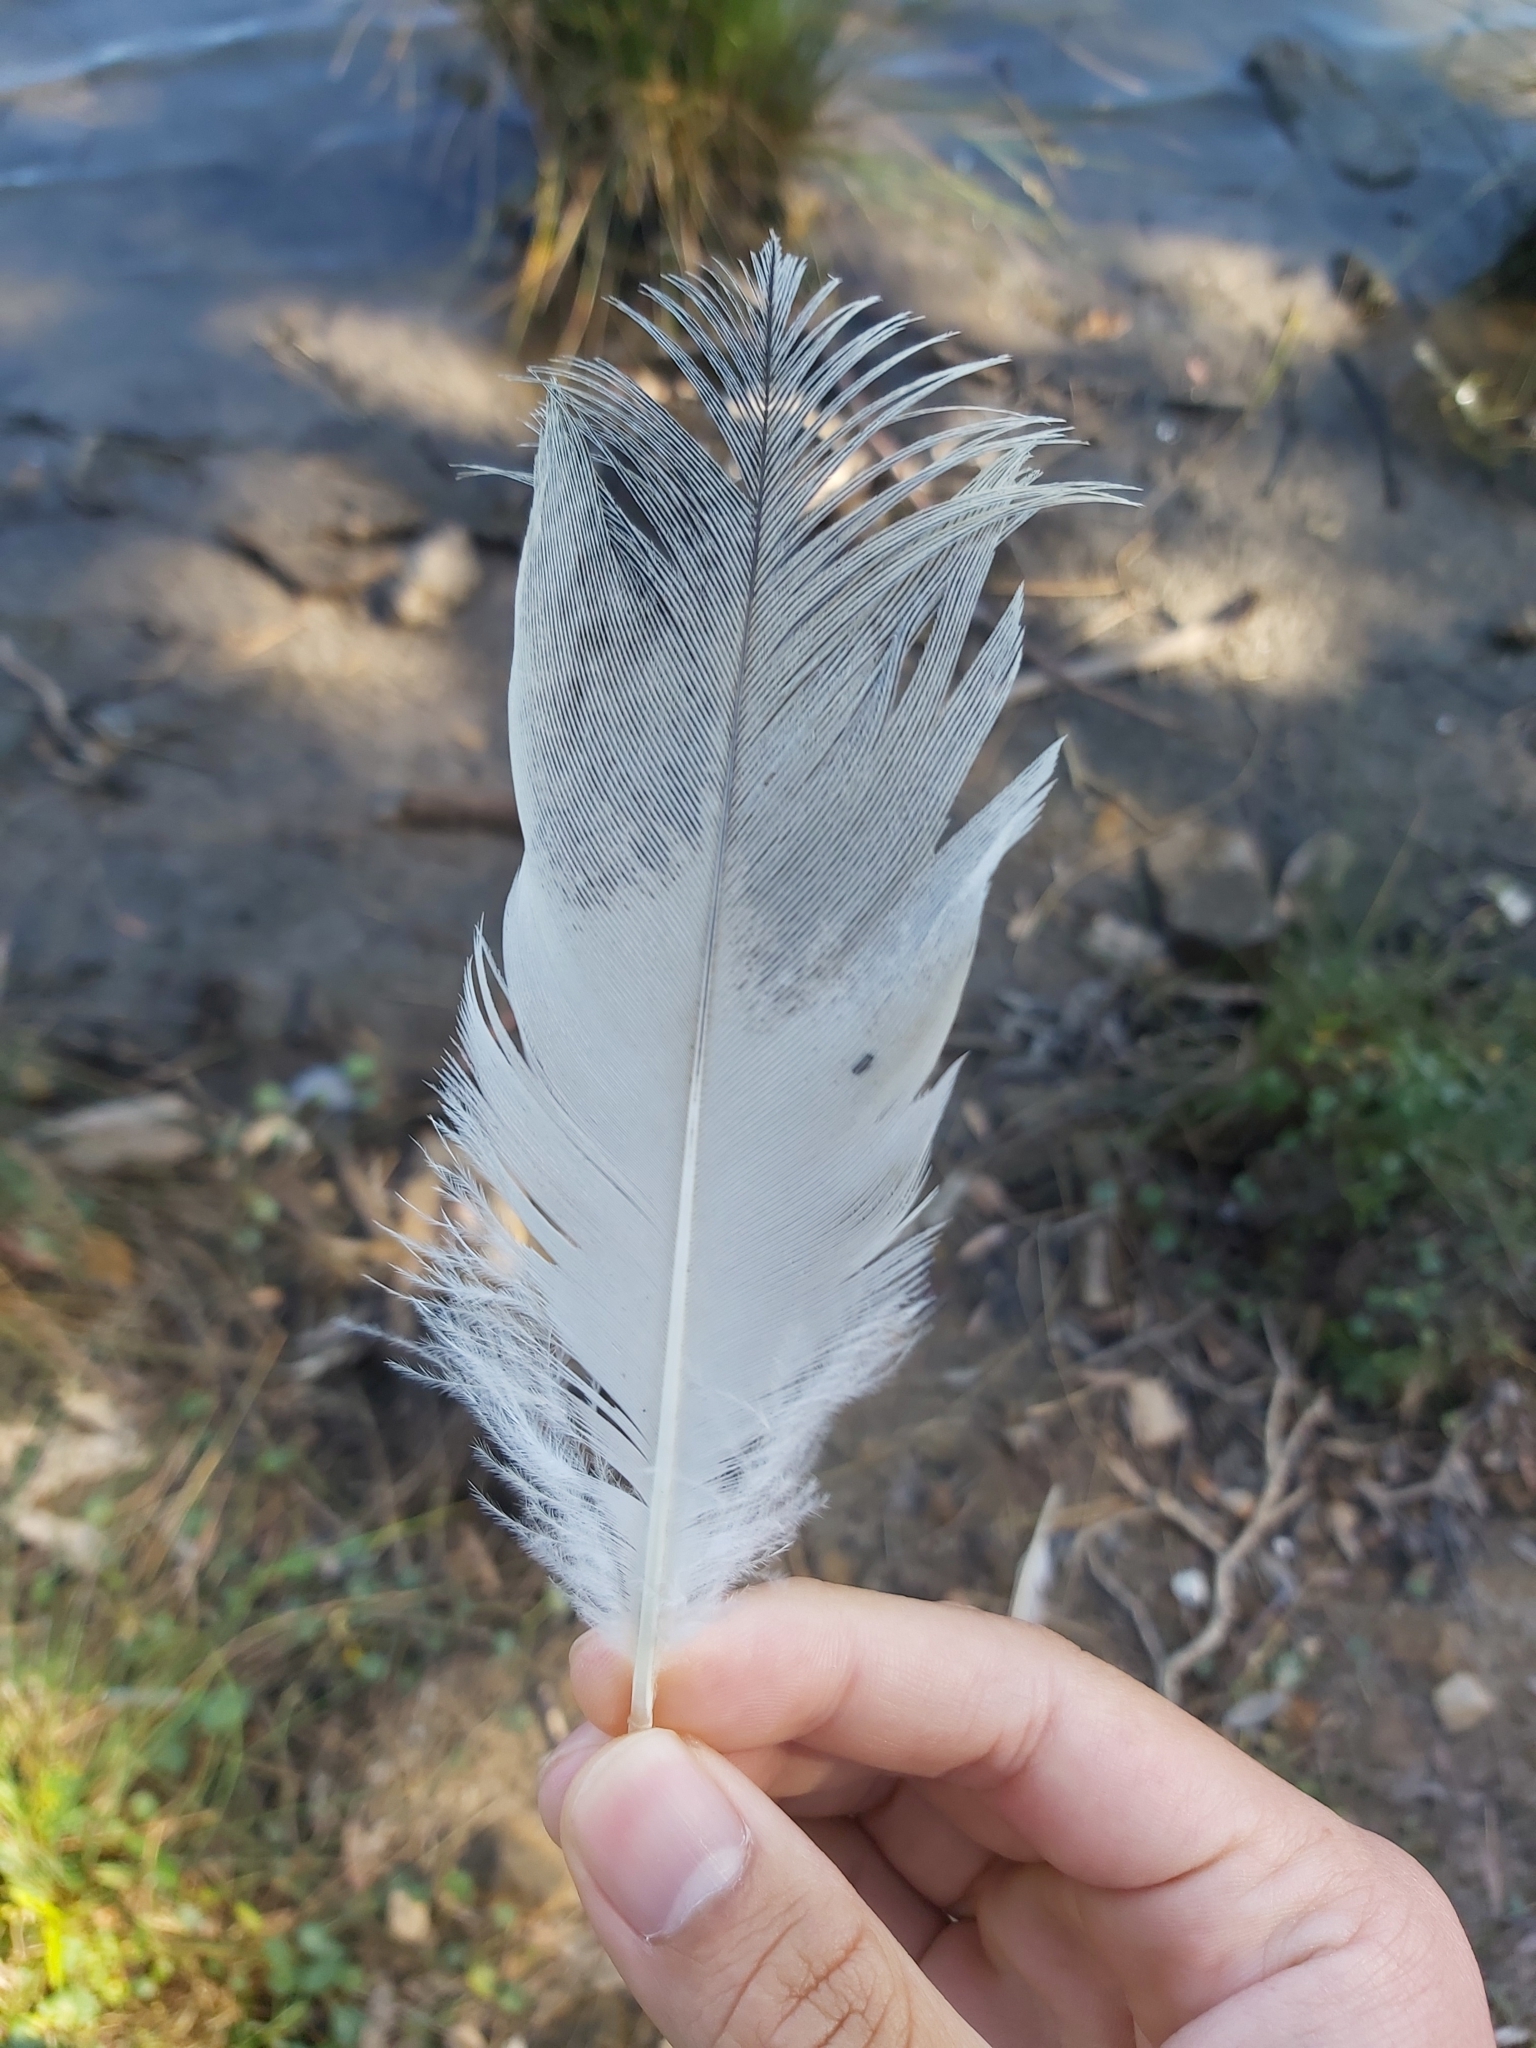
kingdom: Animalia
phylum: Chordata
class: Aves
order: Pelecaniformes
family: Threskiornithidae
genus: Threskiornis
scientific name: Threskiornis molucca
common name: Australian white ibis
